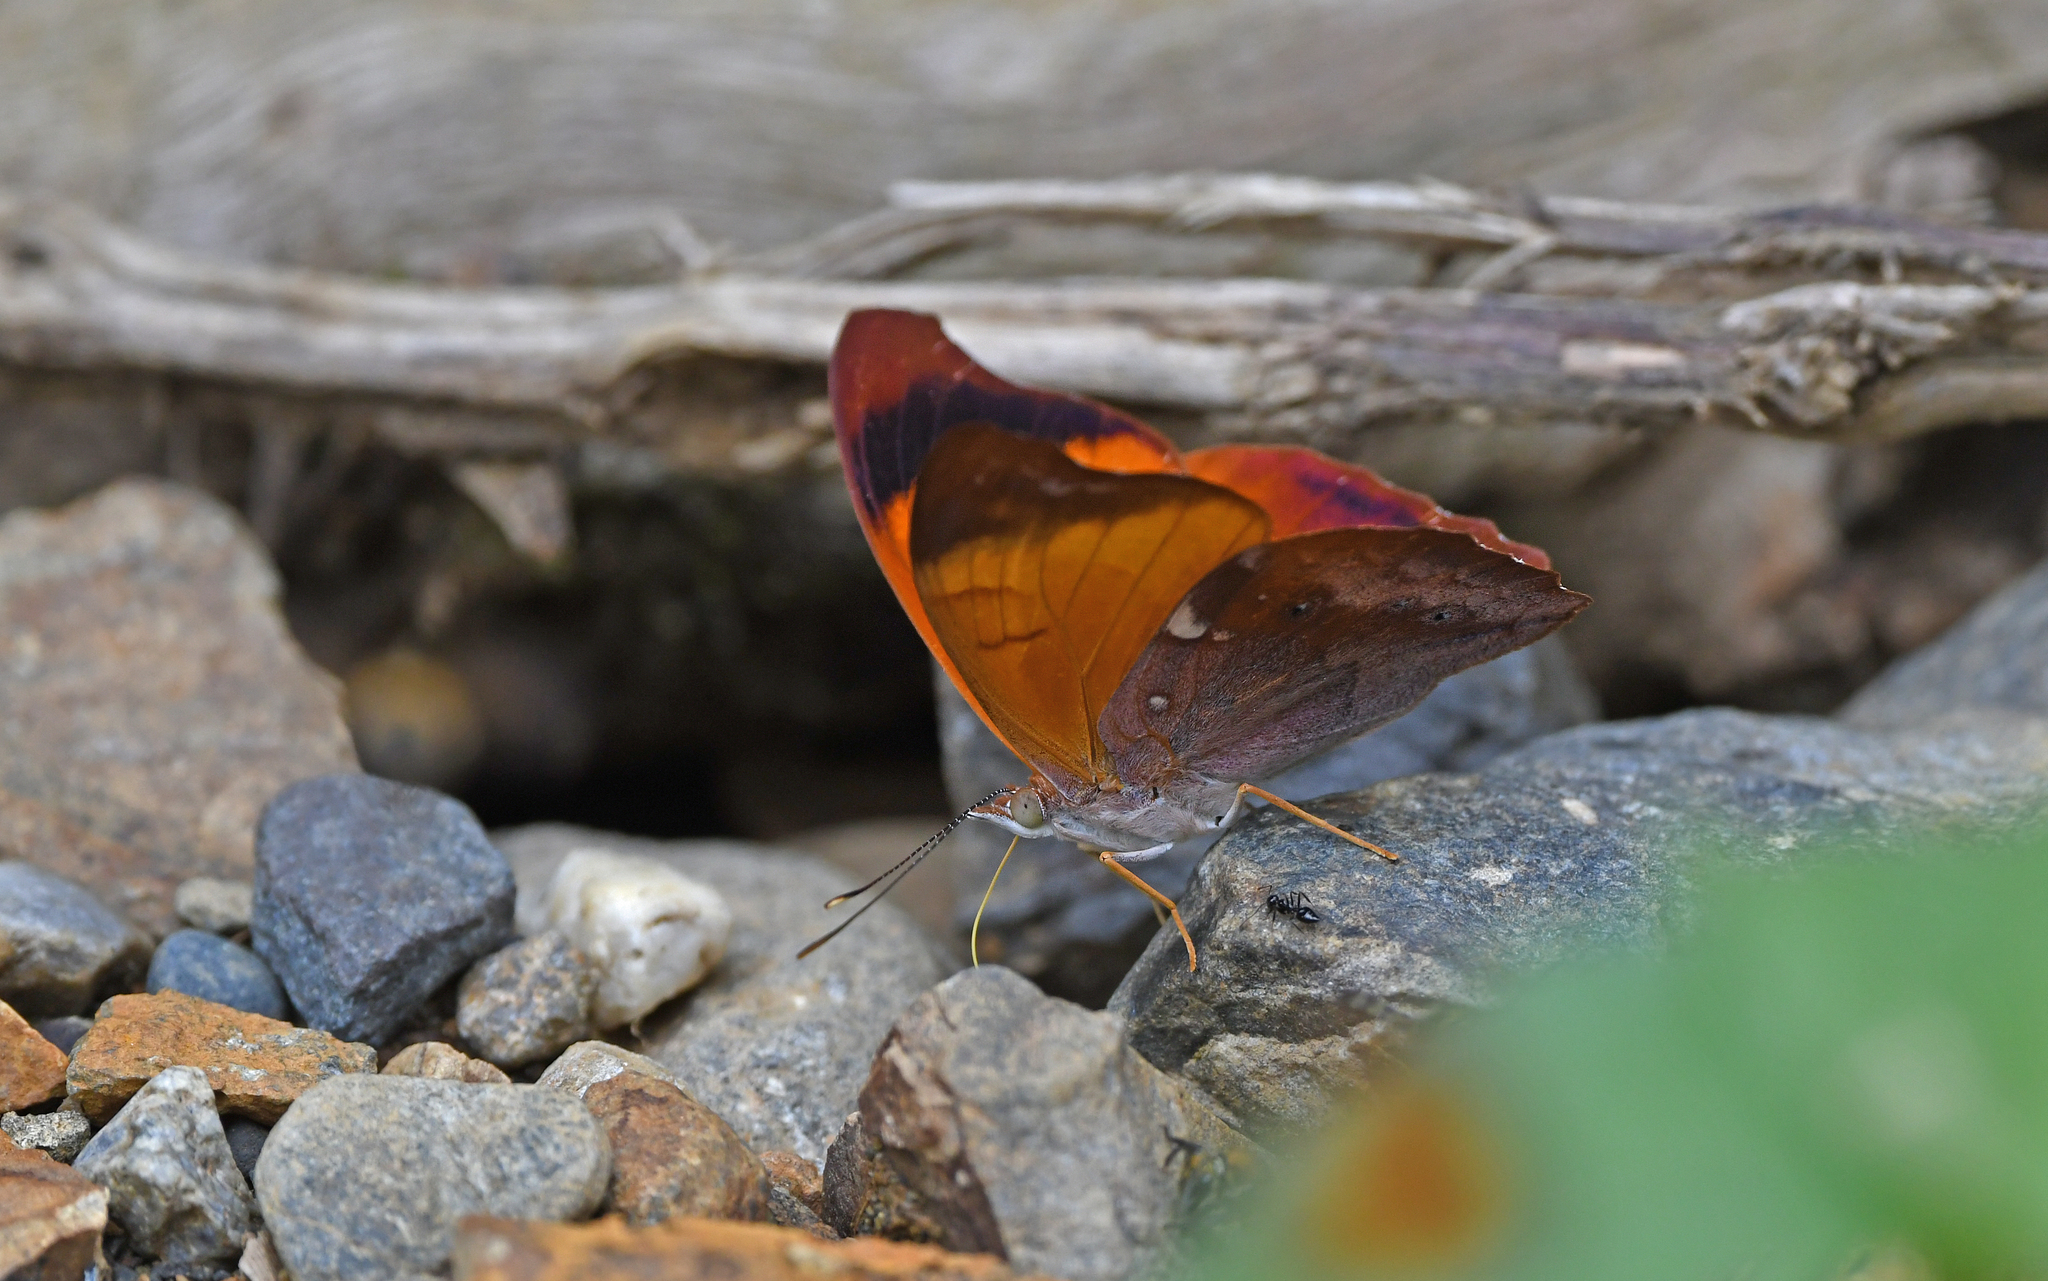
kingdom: Animalia
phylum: Arthropoda
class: Insecta
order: Lepidoptera
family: Nymphalidae
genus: Temenis
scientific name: Temenis laothoe
